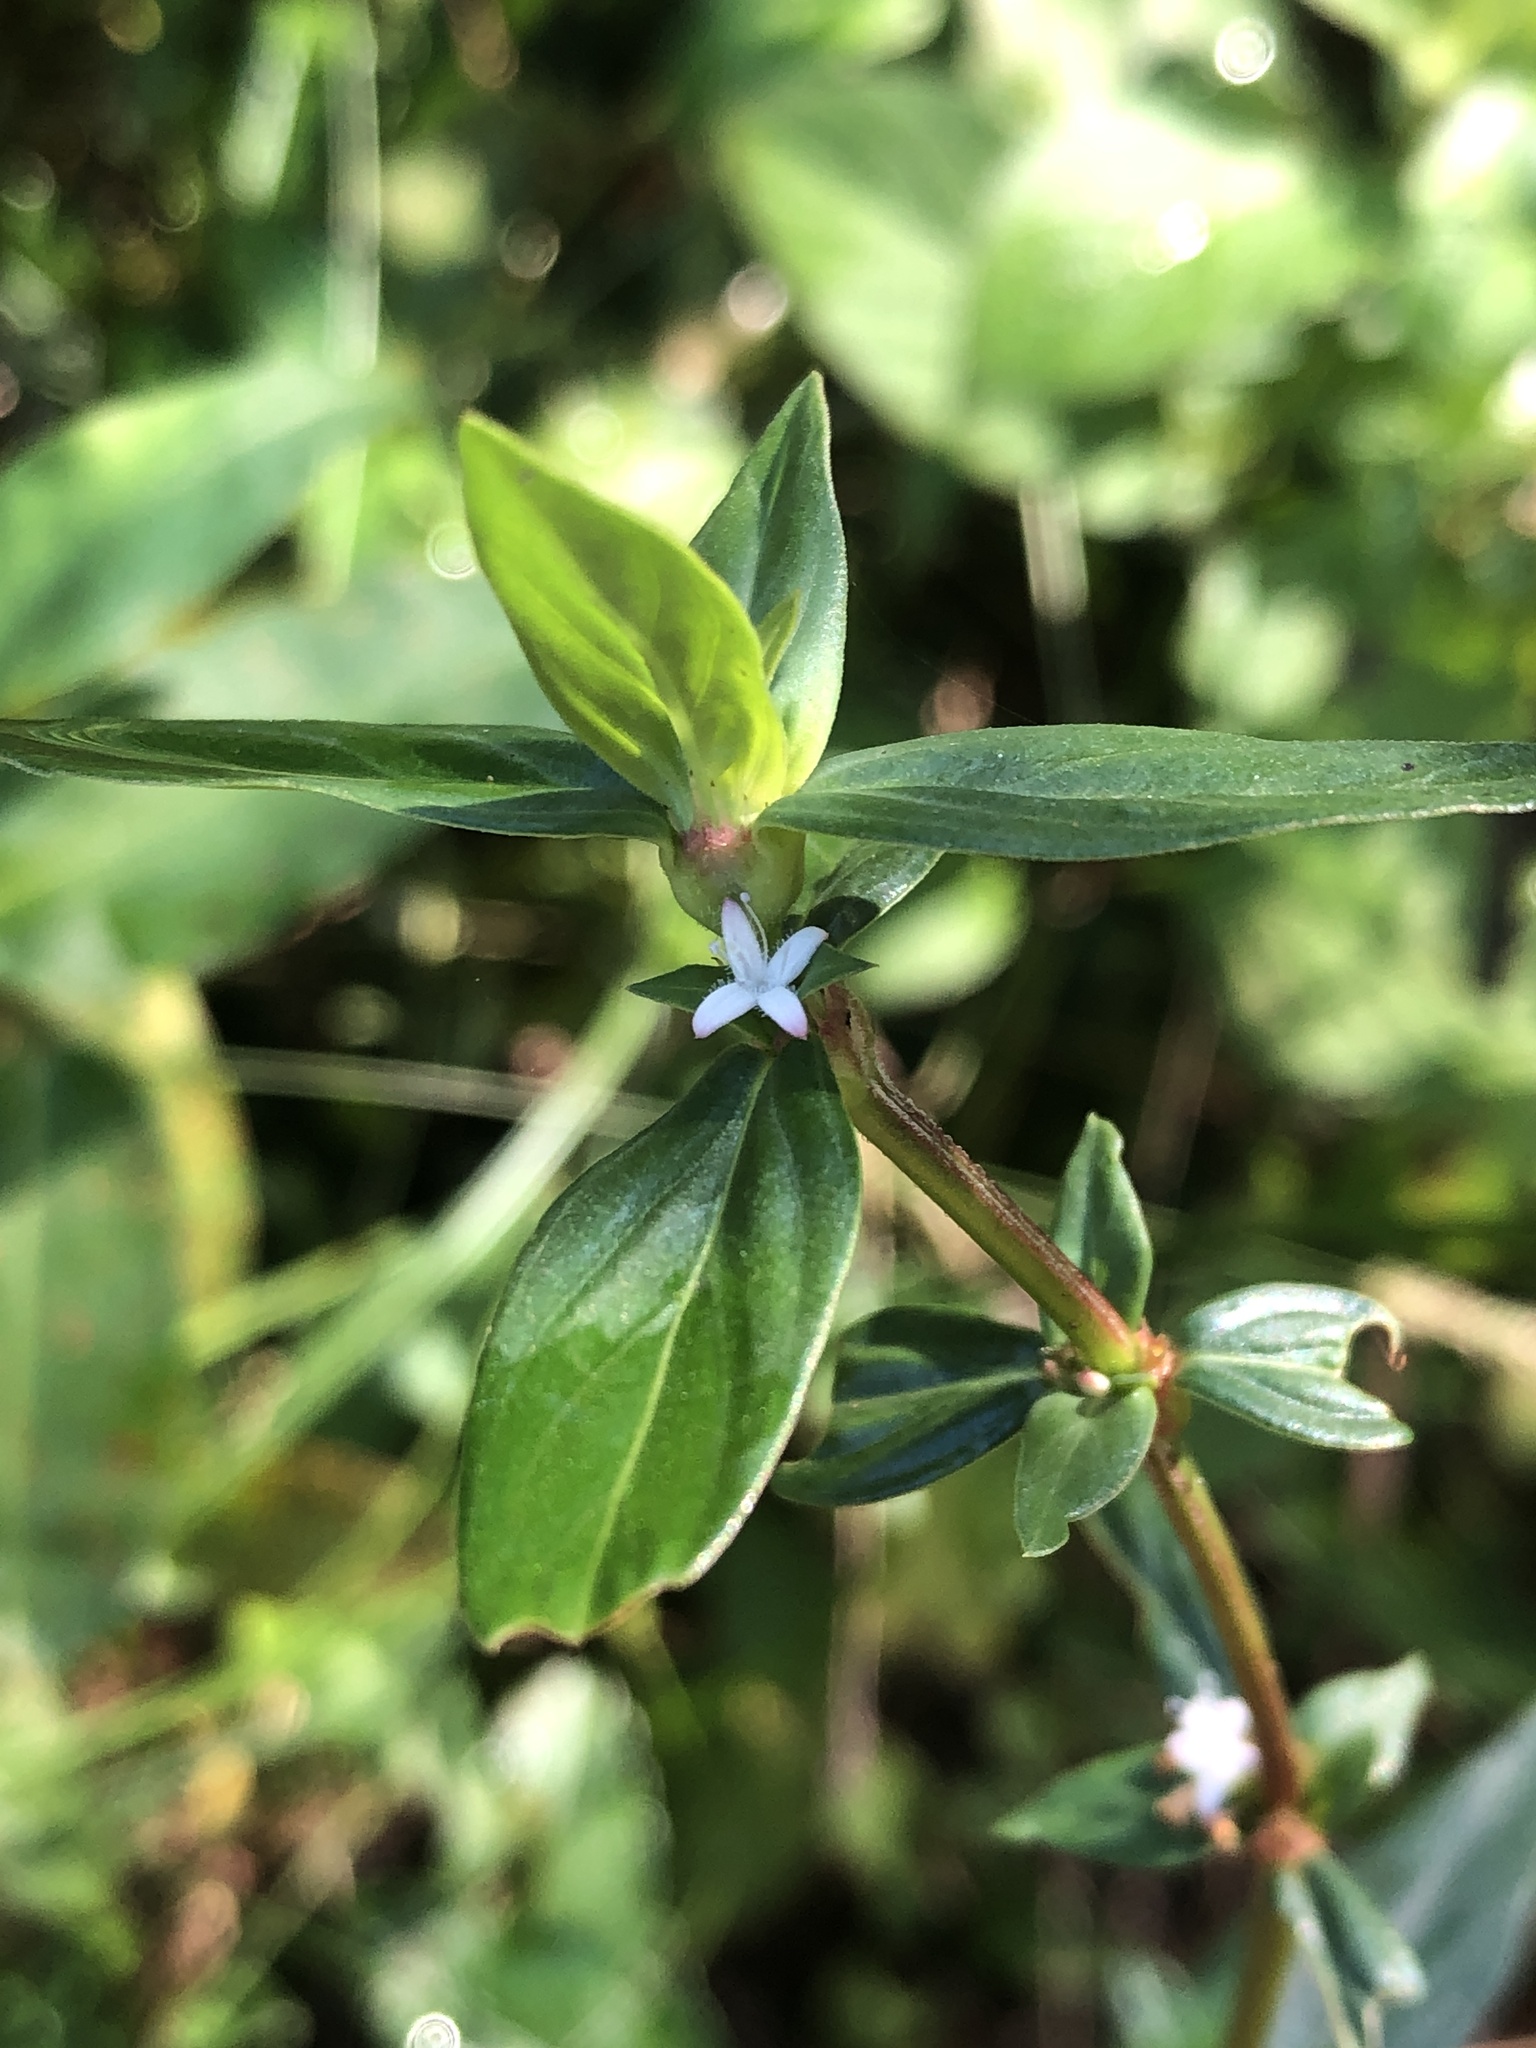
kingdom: Plantae
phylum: Tracheophyta
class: Magnoliopsida
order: Gentianales
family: Rubiaceae
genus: Spermacoce
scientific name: Spermacoce remota
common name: Woodland false buttonweed
